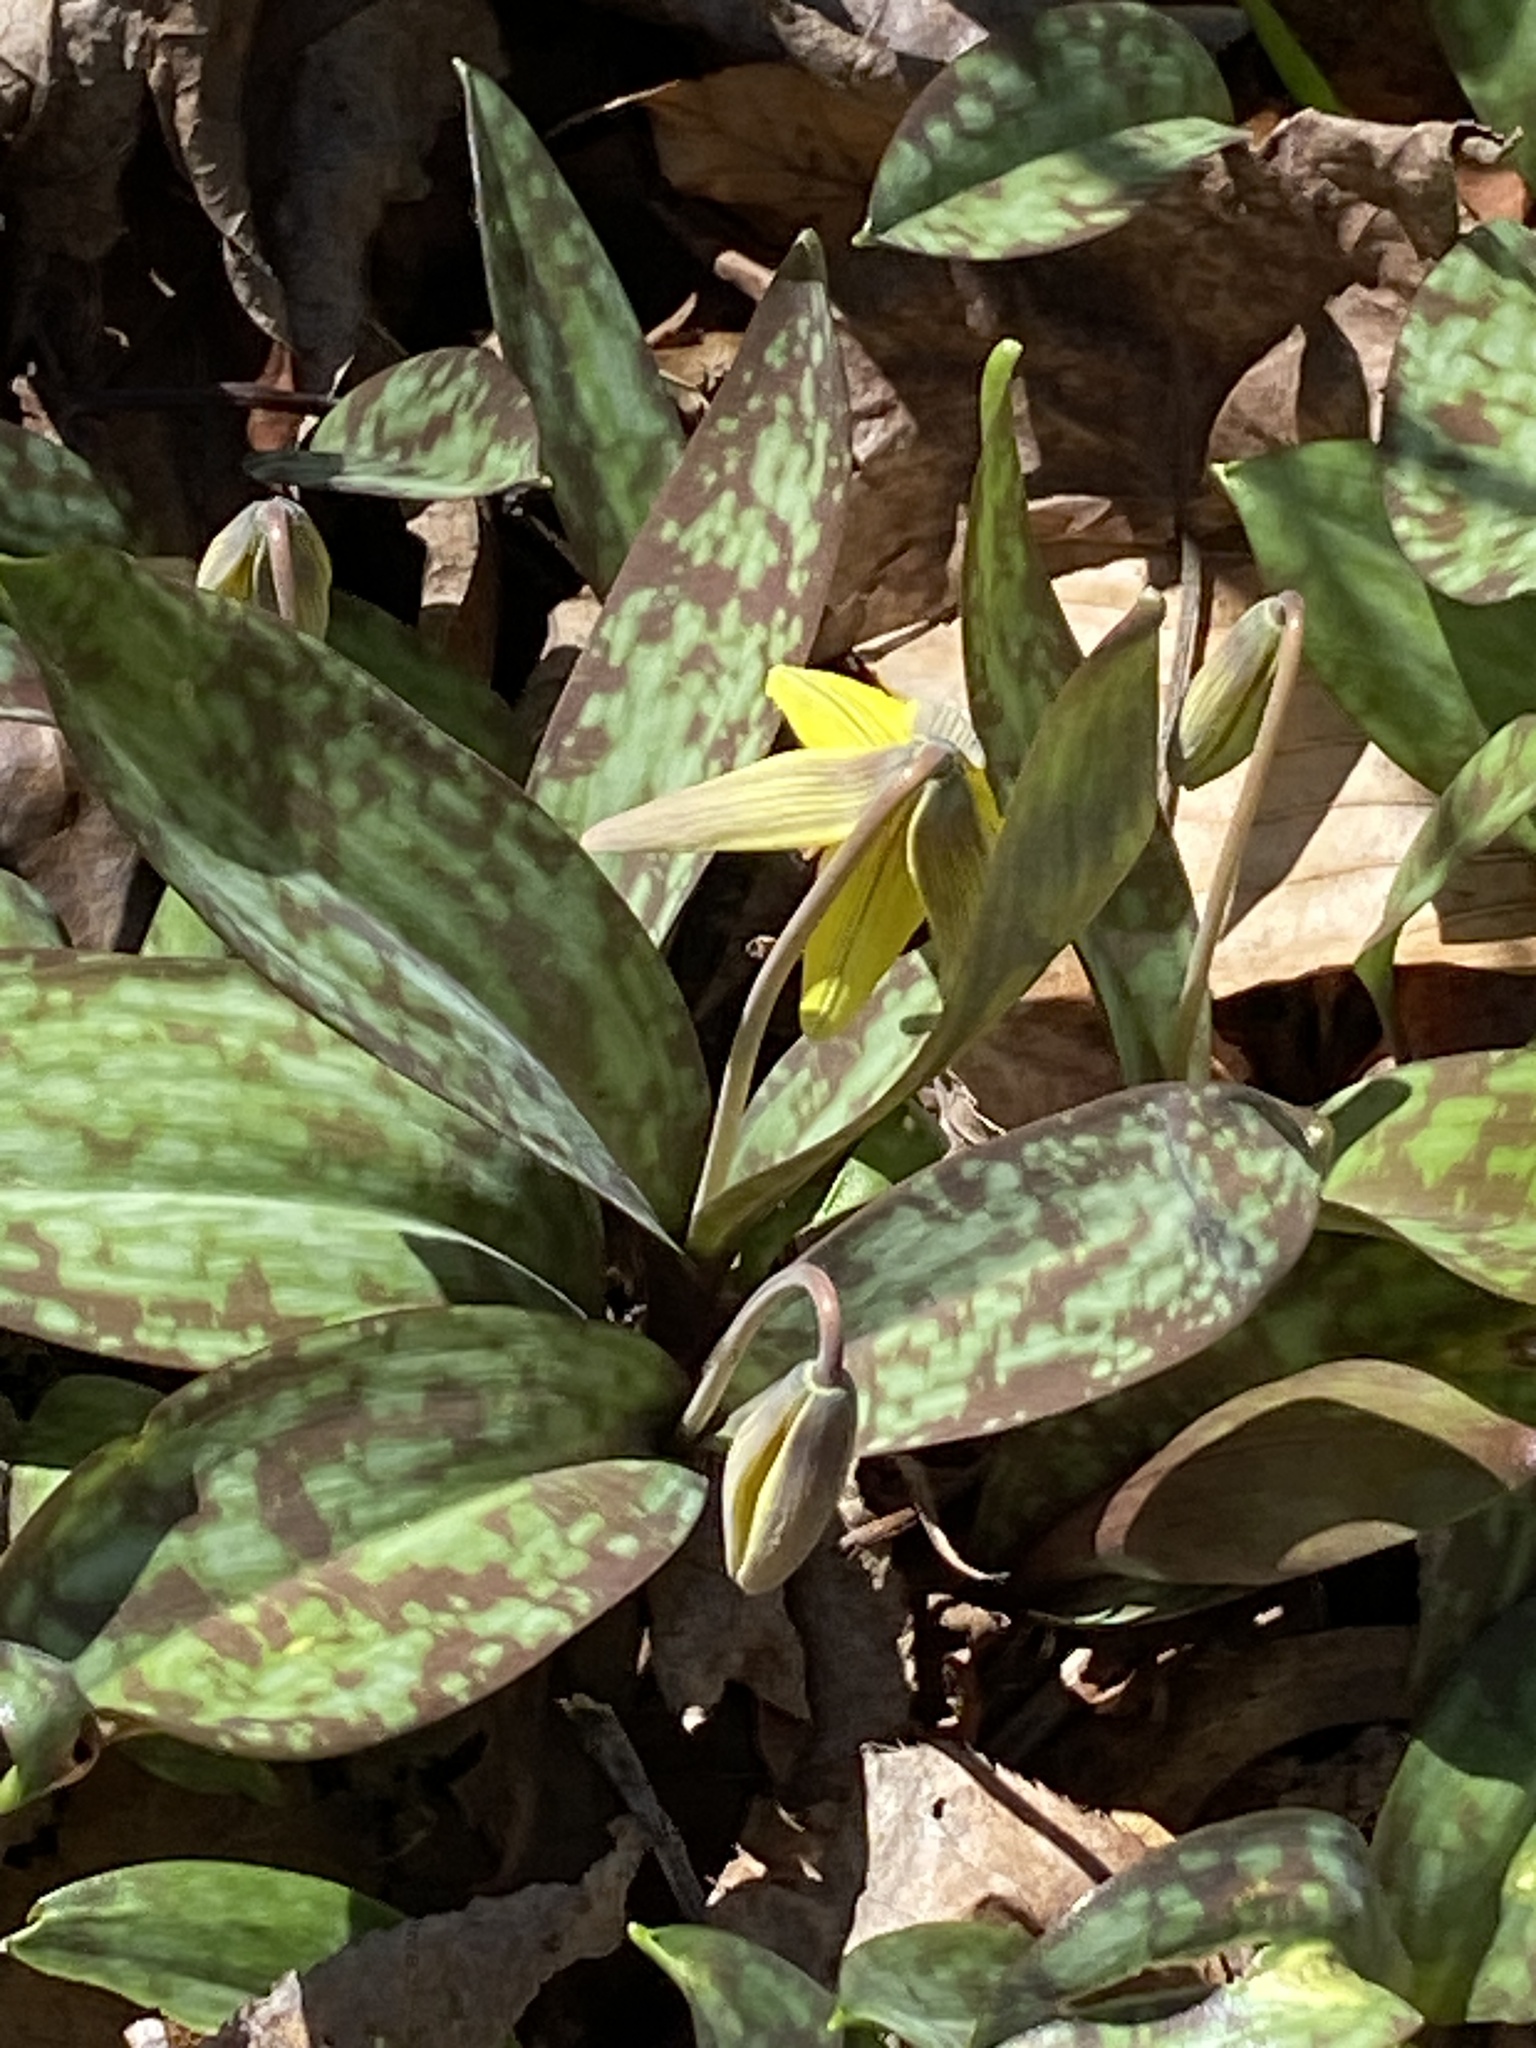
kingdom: Plantae
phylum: Tracheophyta
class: Liliopsida
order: Liliales
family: Liliaceae
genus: Erythronium
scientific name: Erythronium americanum
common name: Yellow adder's-tongue
